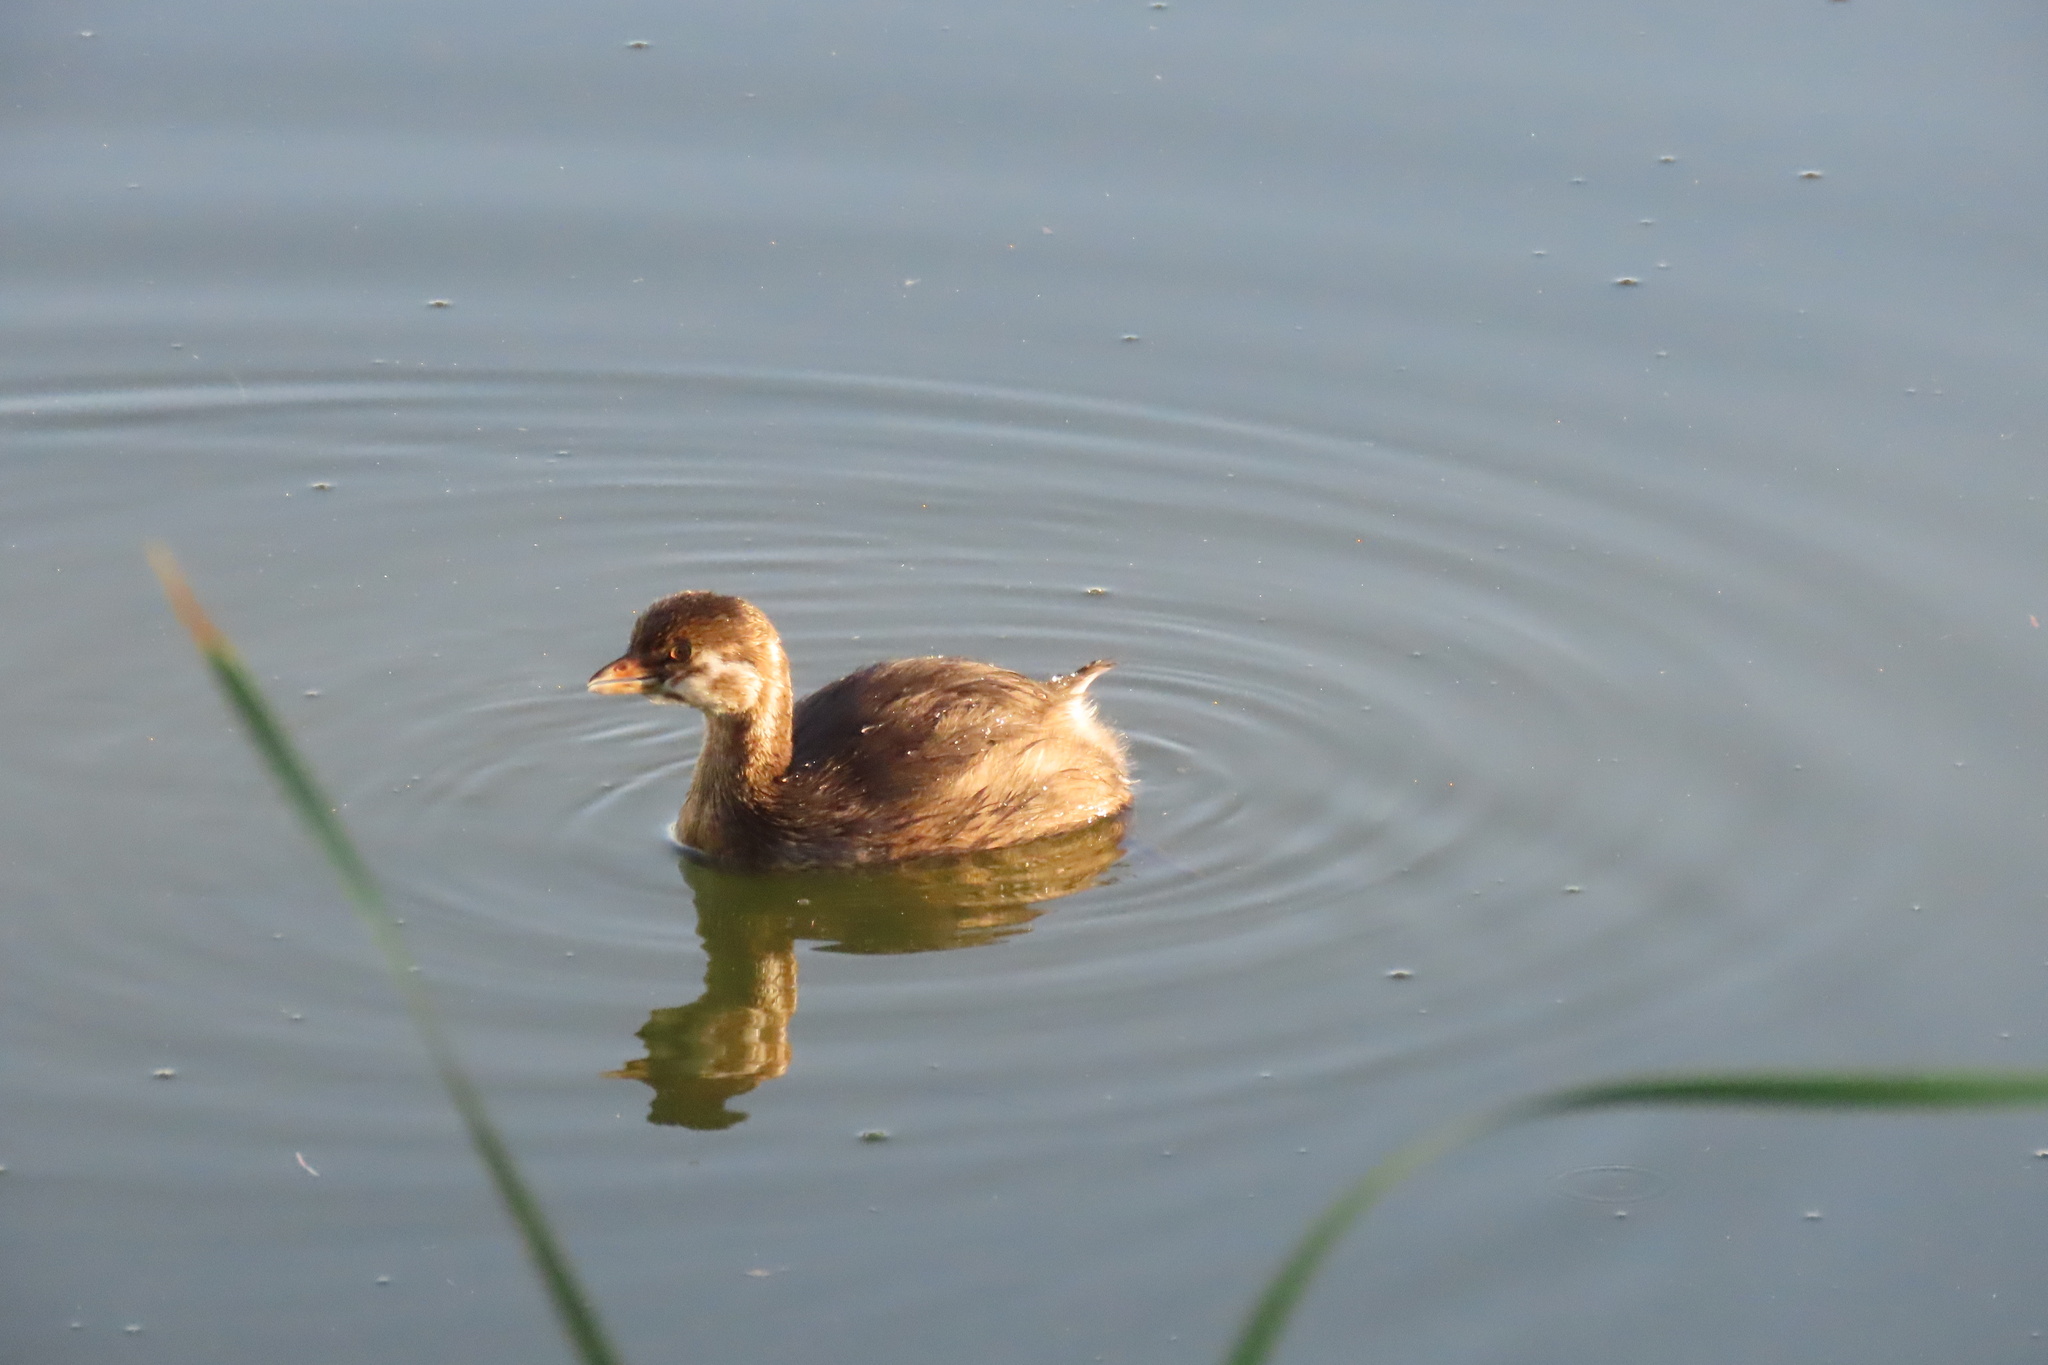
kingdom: Animalia
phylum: Chordata
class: Aves
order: Podicipediformes
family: Podicipedidae
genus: Podilymbus
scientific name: Podilymbus podiceps
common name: Pied-billed grebe
